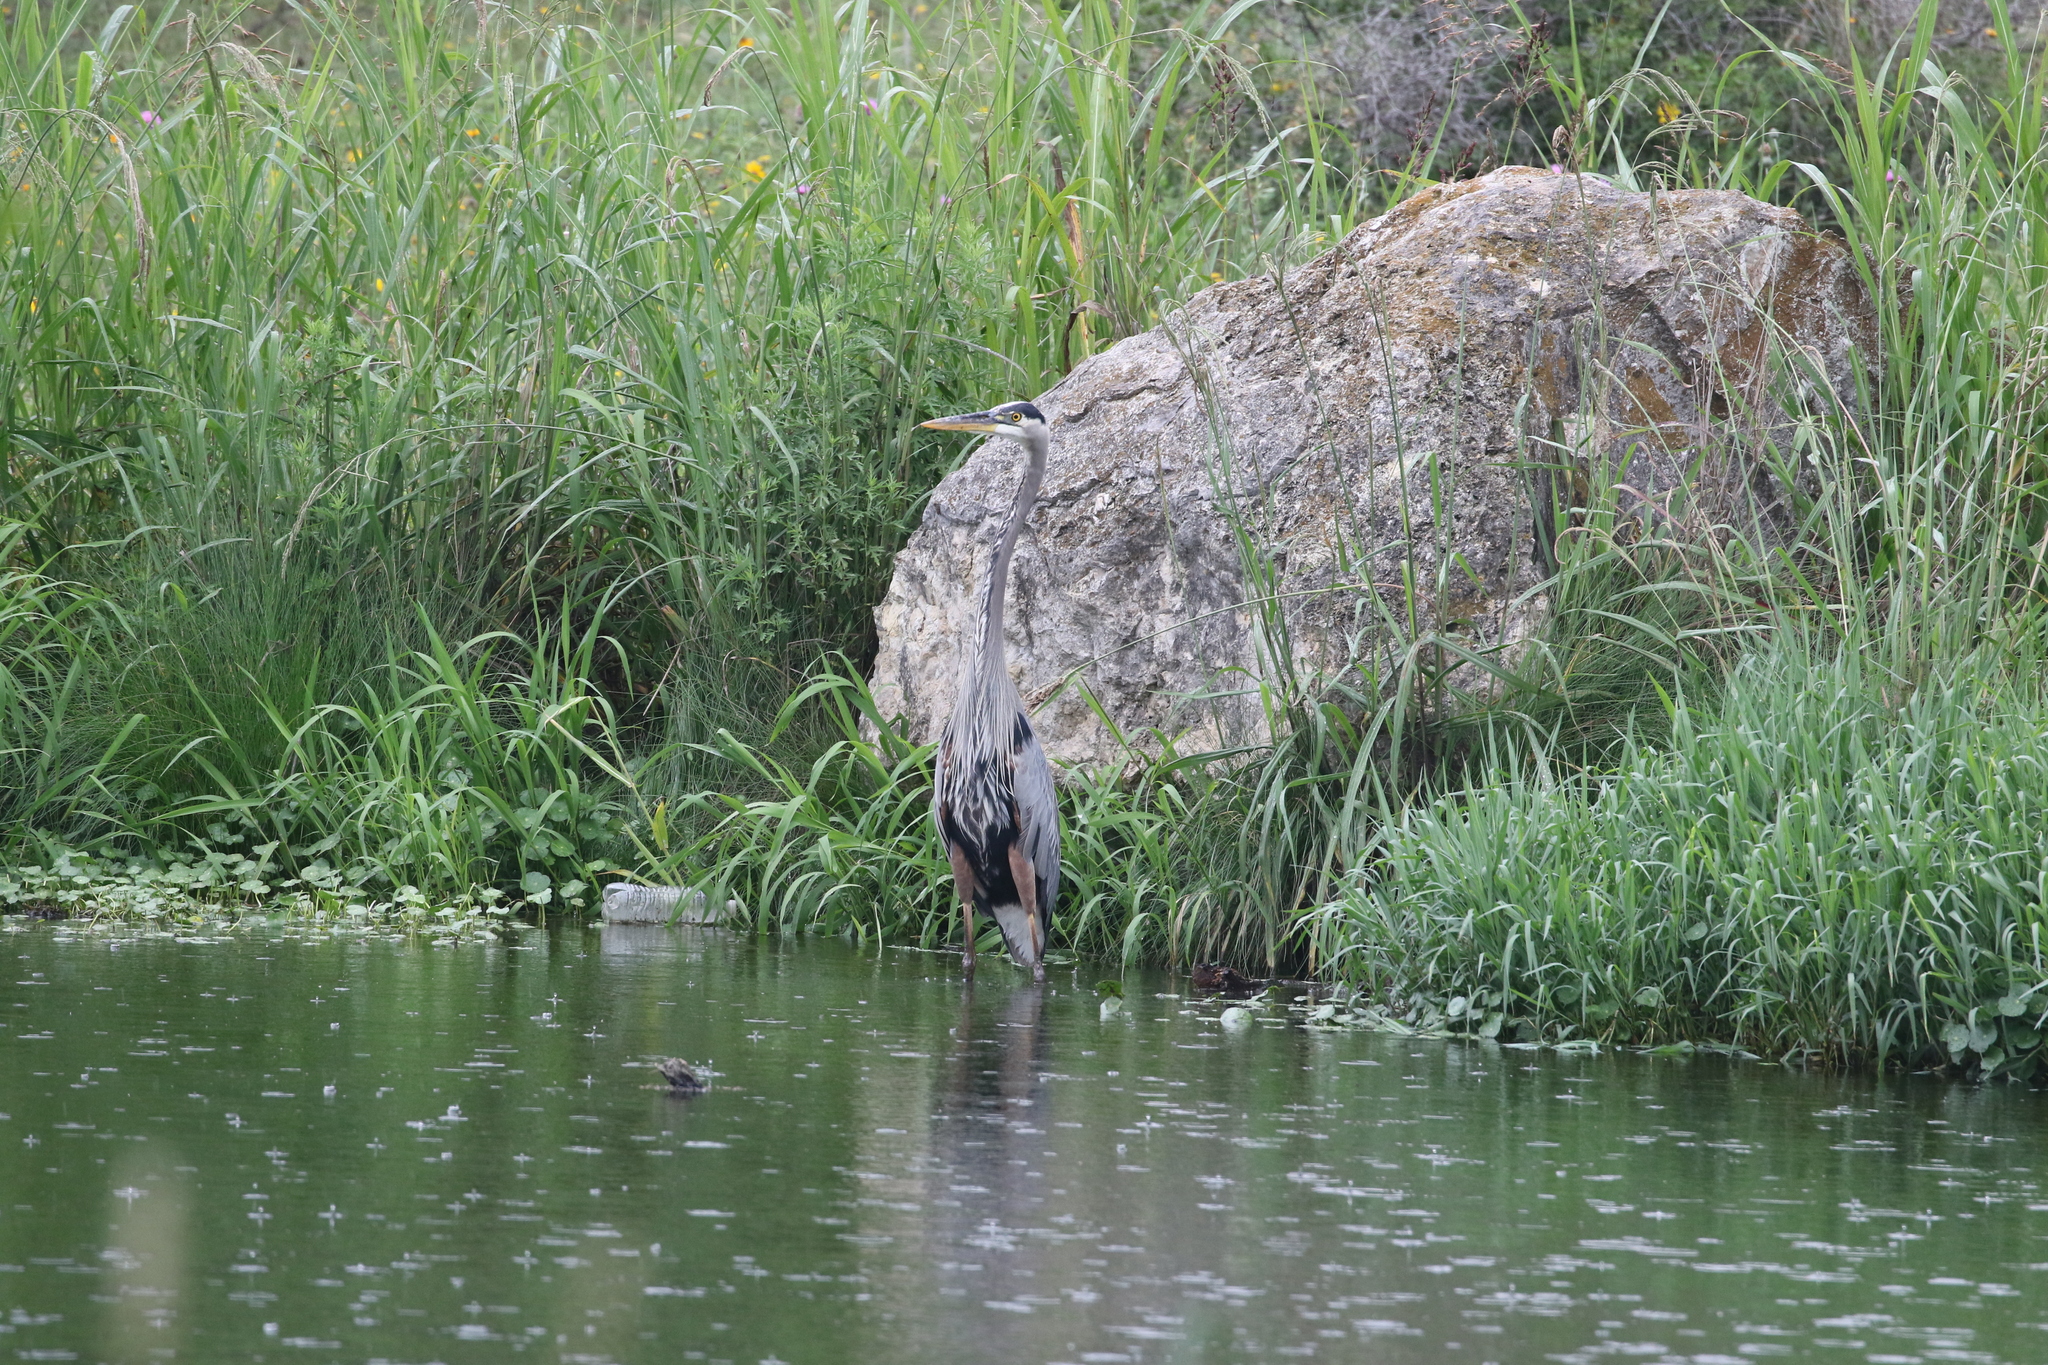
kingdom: Animalia
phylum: Chordata
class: Aves
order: Pelecaniformes
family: Ardeidae
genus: Ardea
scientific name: Ardea herodias
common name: Great blue heron
